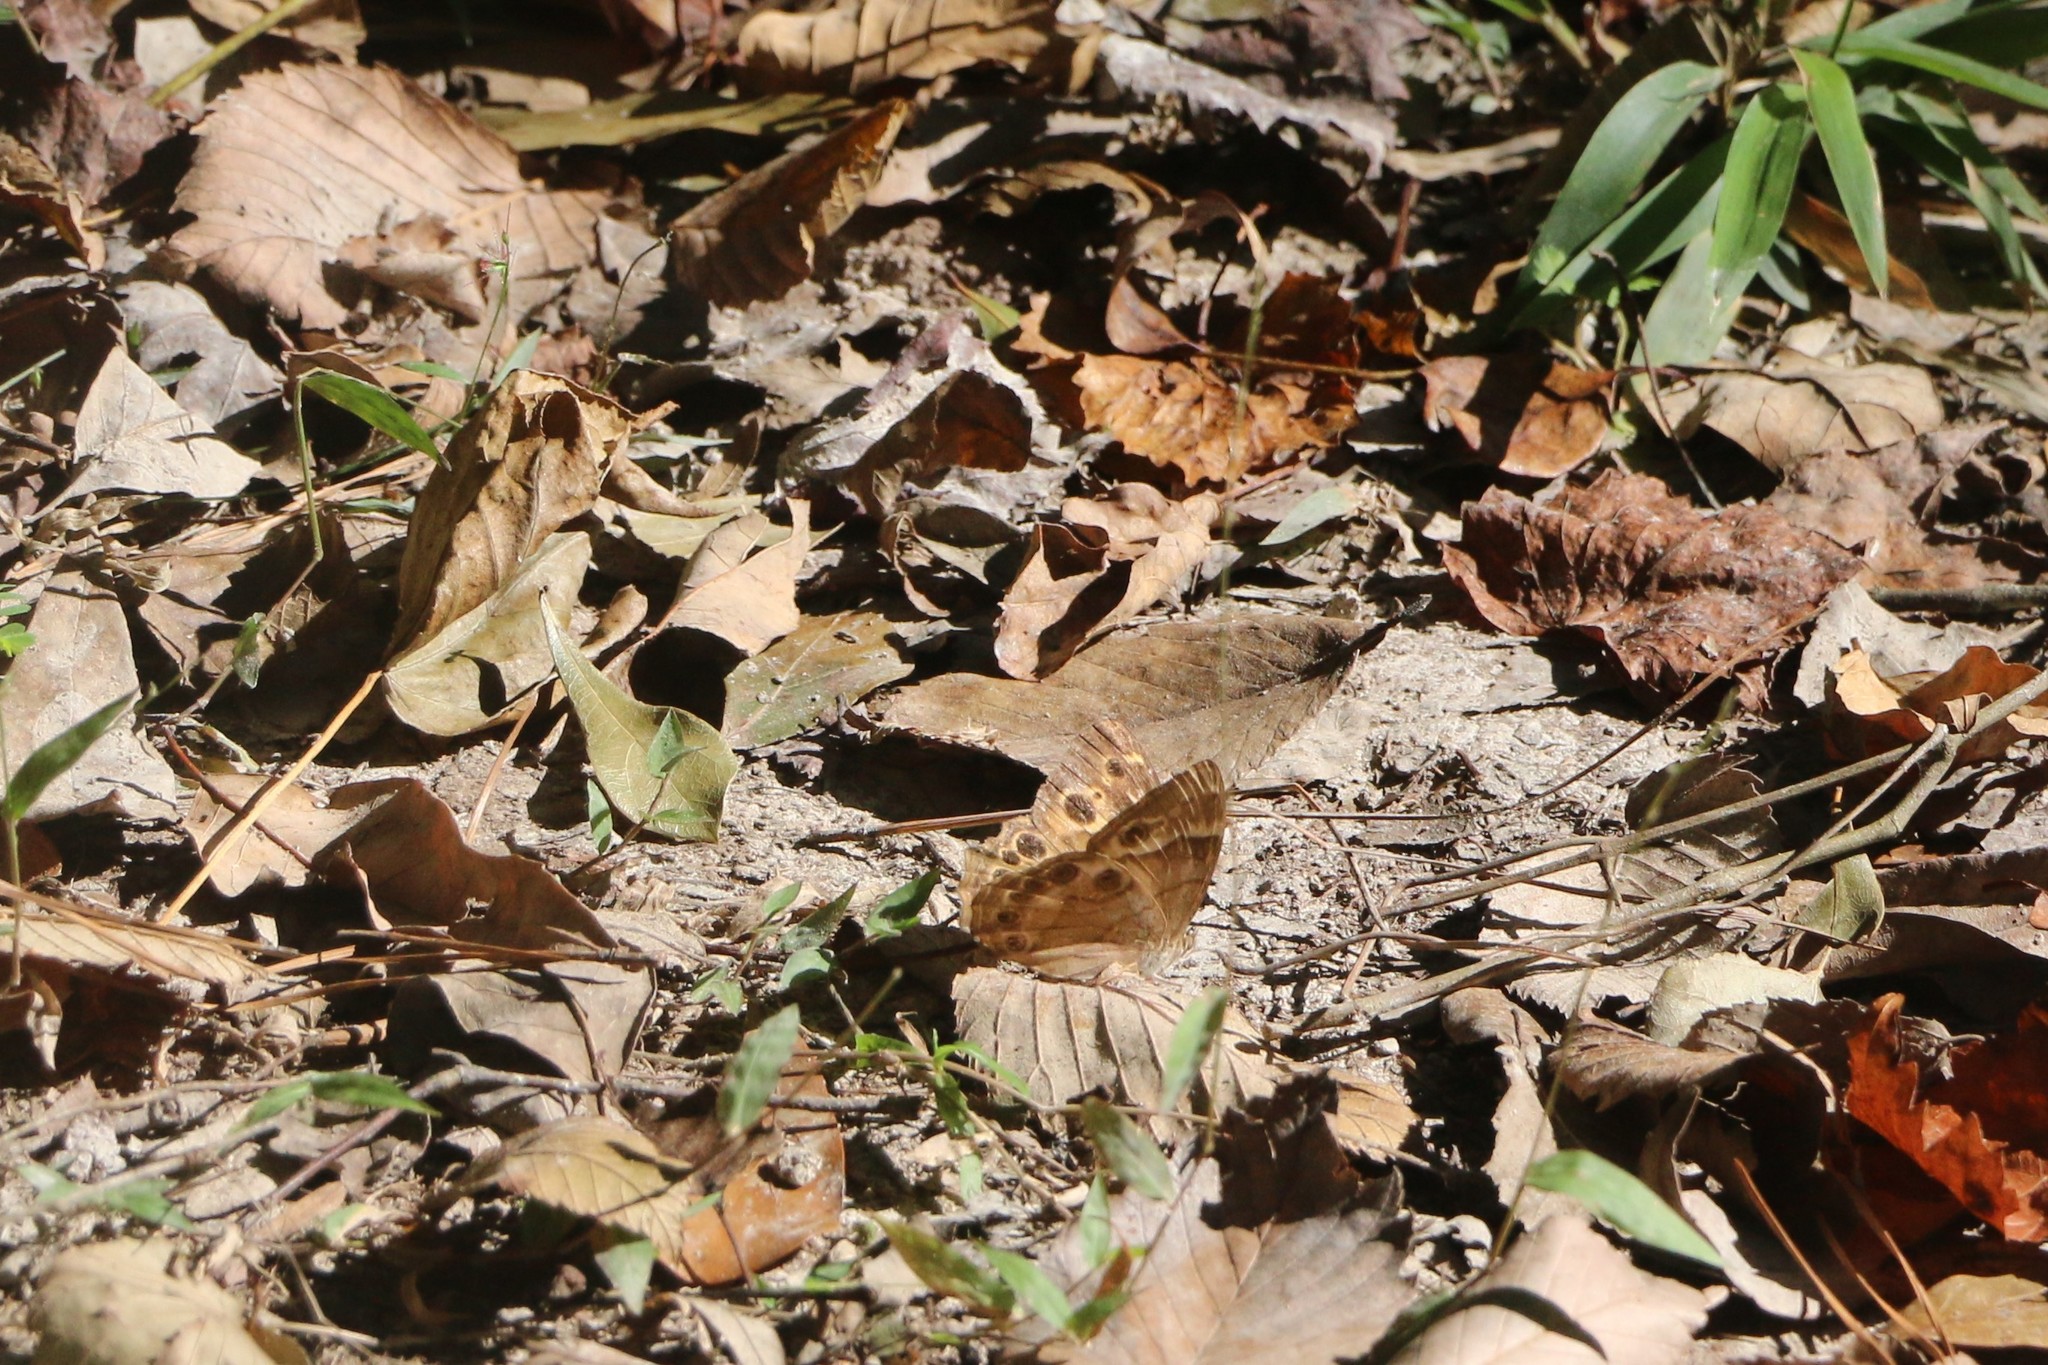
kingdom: Animalia
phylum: Arthropoda
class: Insecta
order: Lepidoptera
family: Nymphalidae
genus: Enodia
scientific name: Enodia portlandia
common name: Southern pearly-eye
